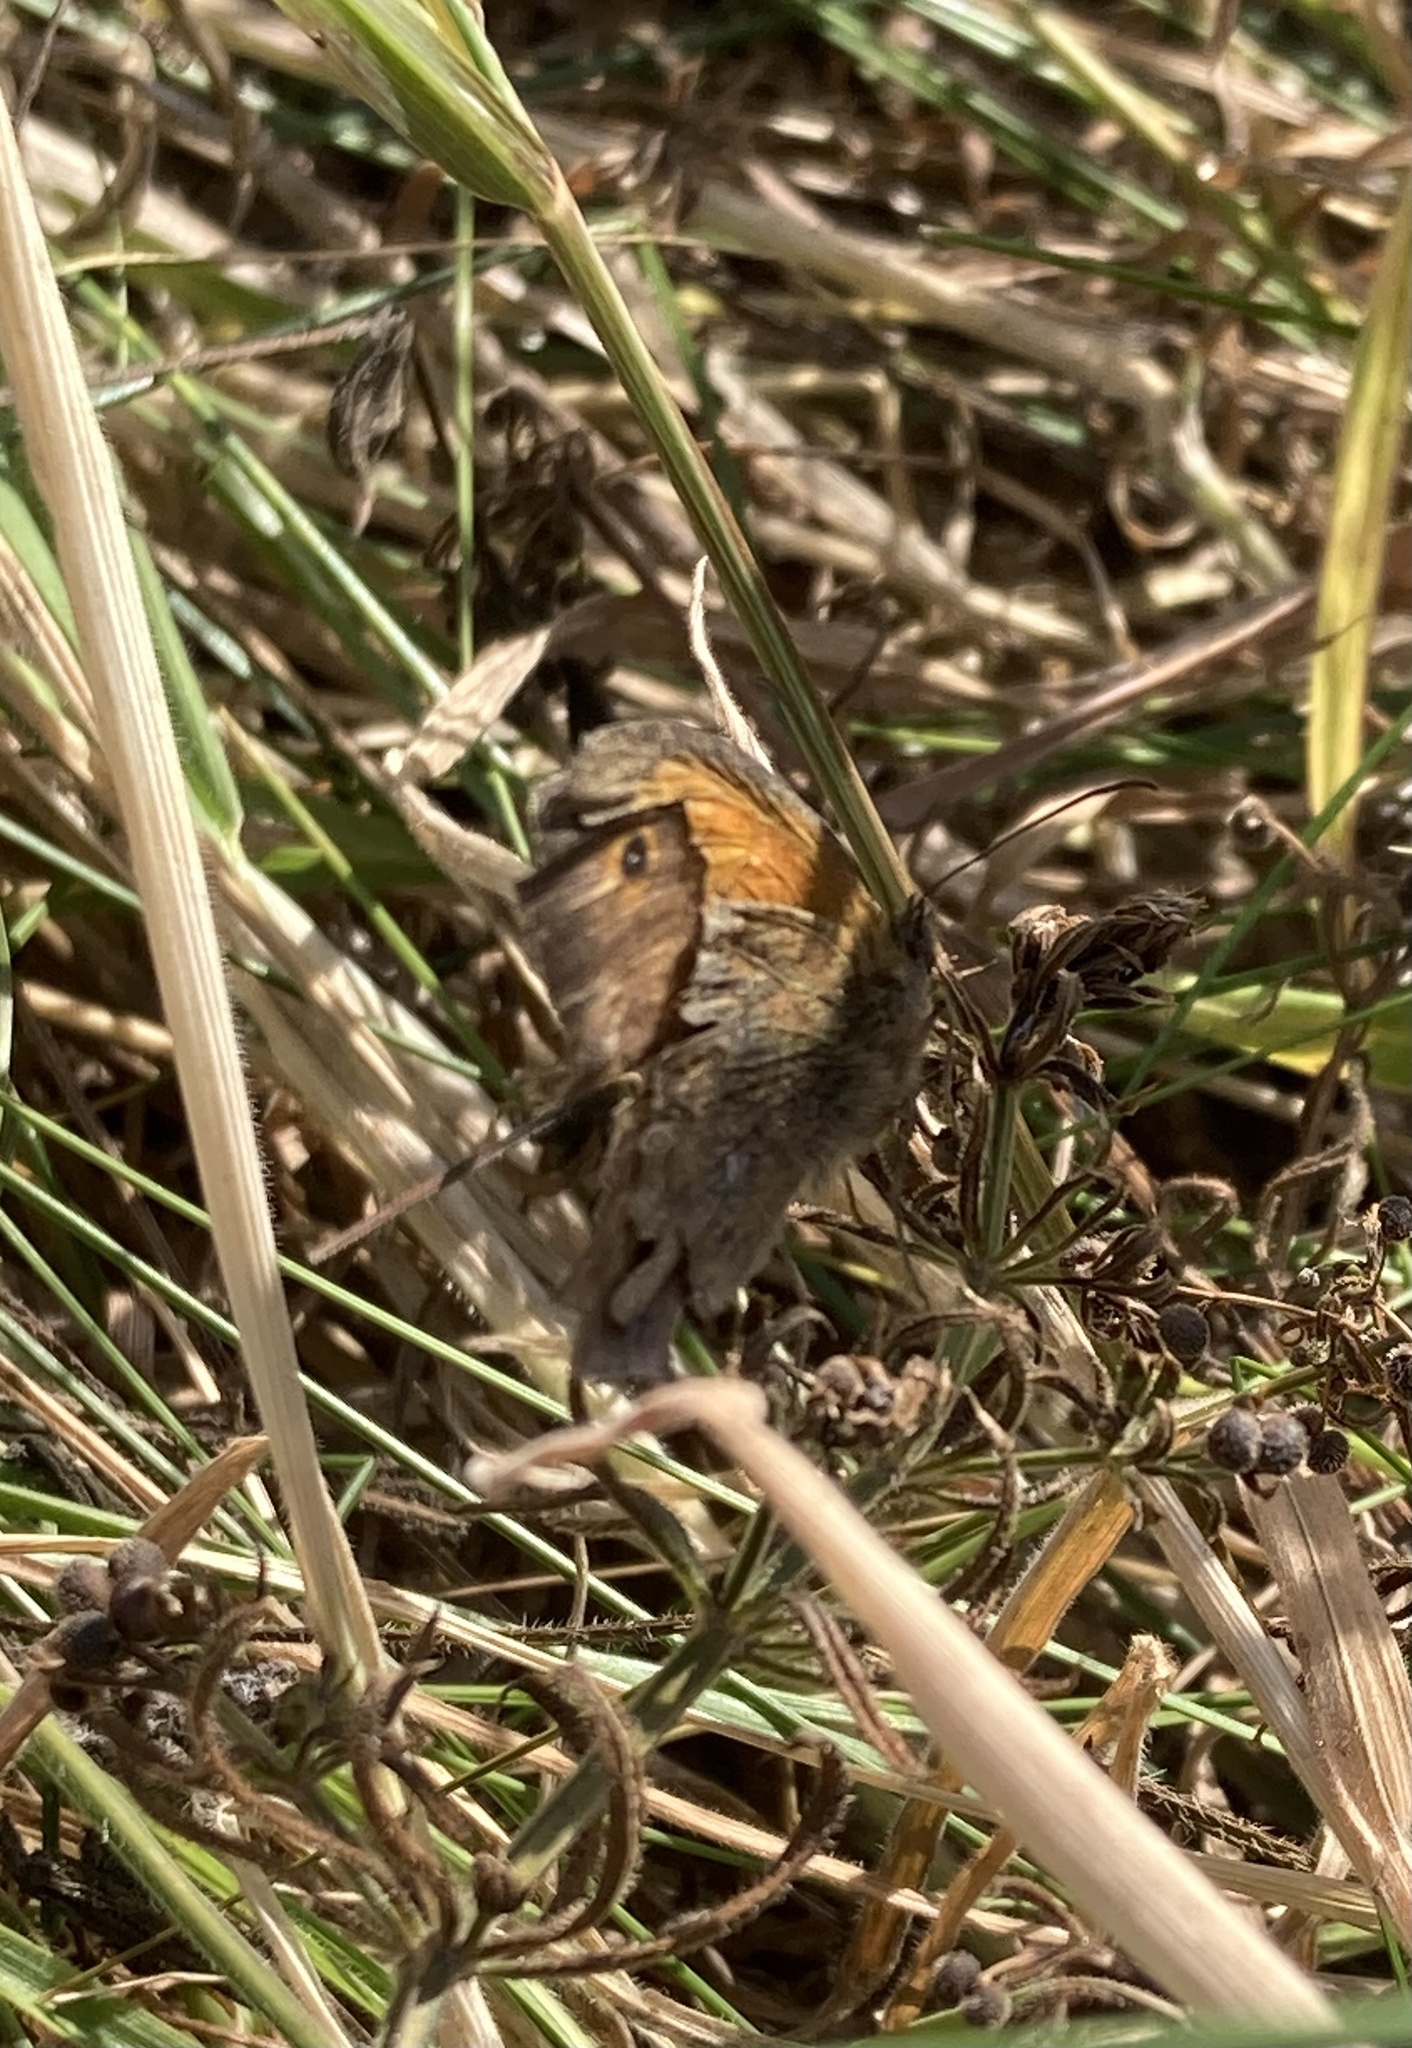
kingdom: Animalia
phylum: Arthropoda
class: Insecta
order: Lepidoptera
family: Nymphalidae
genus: Maniola
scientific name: Maniola jurtina
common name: Meadow brown
